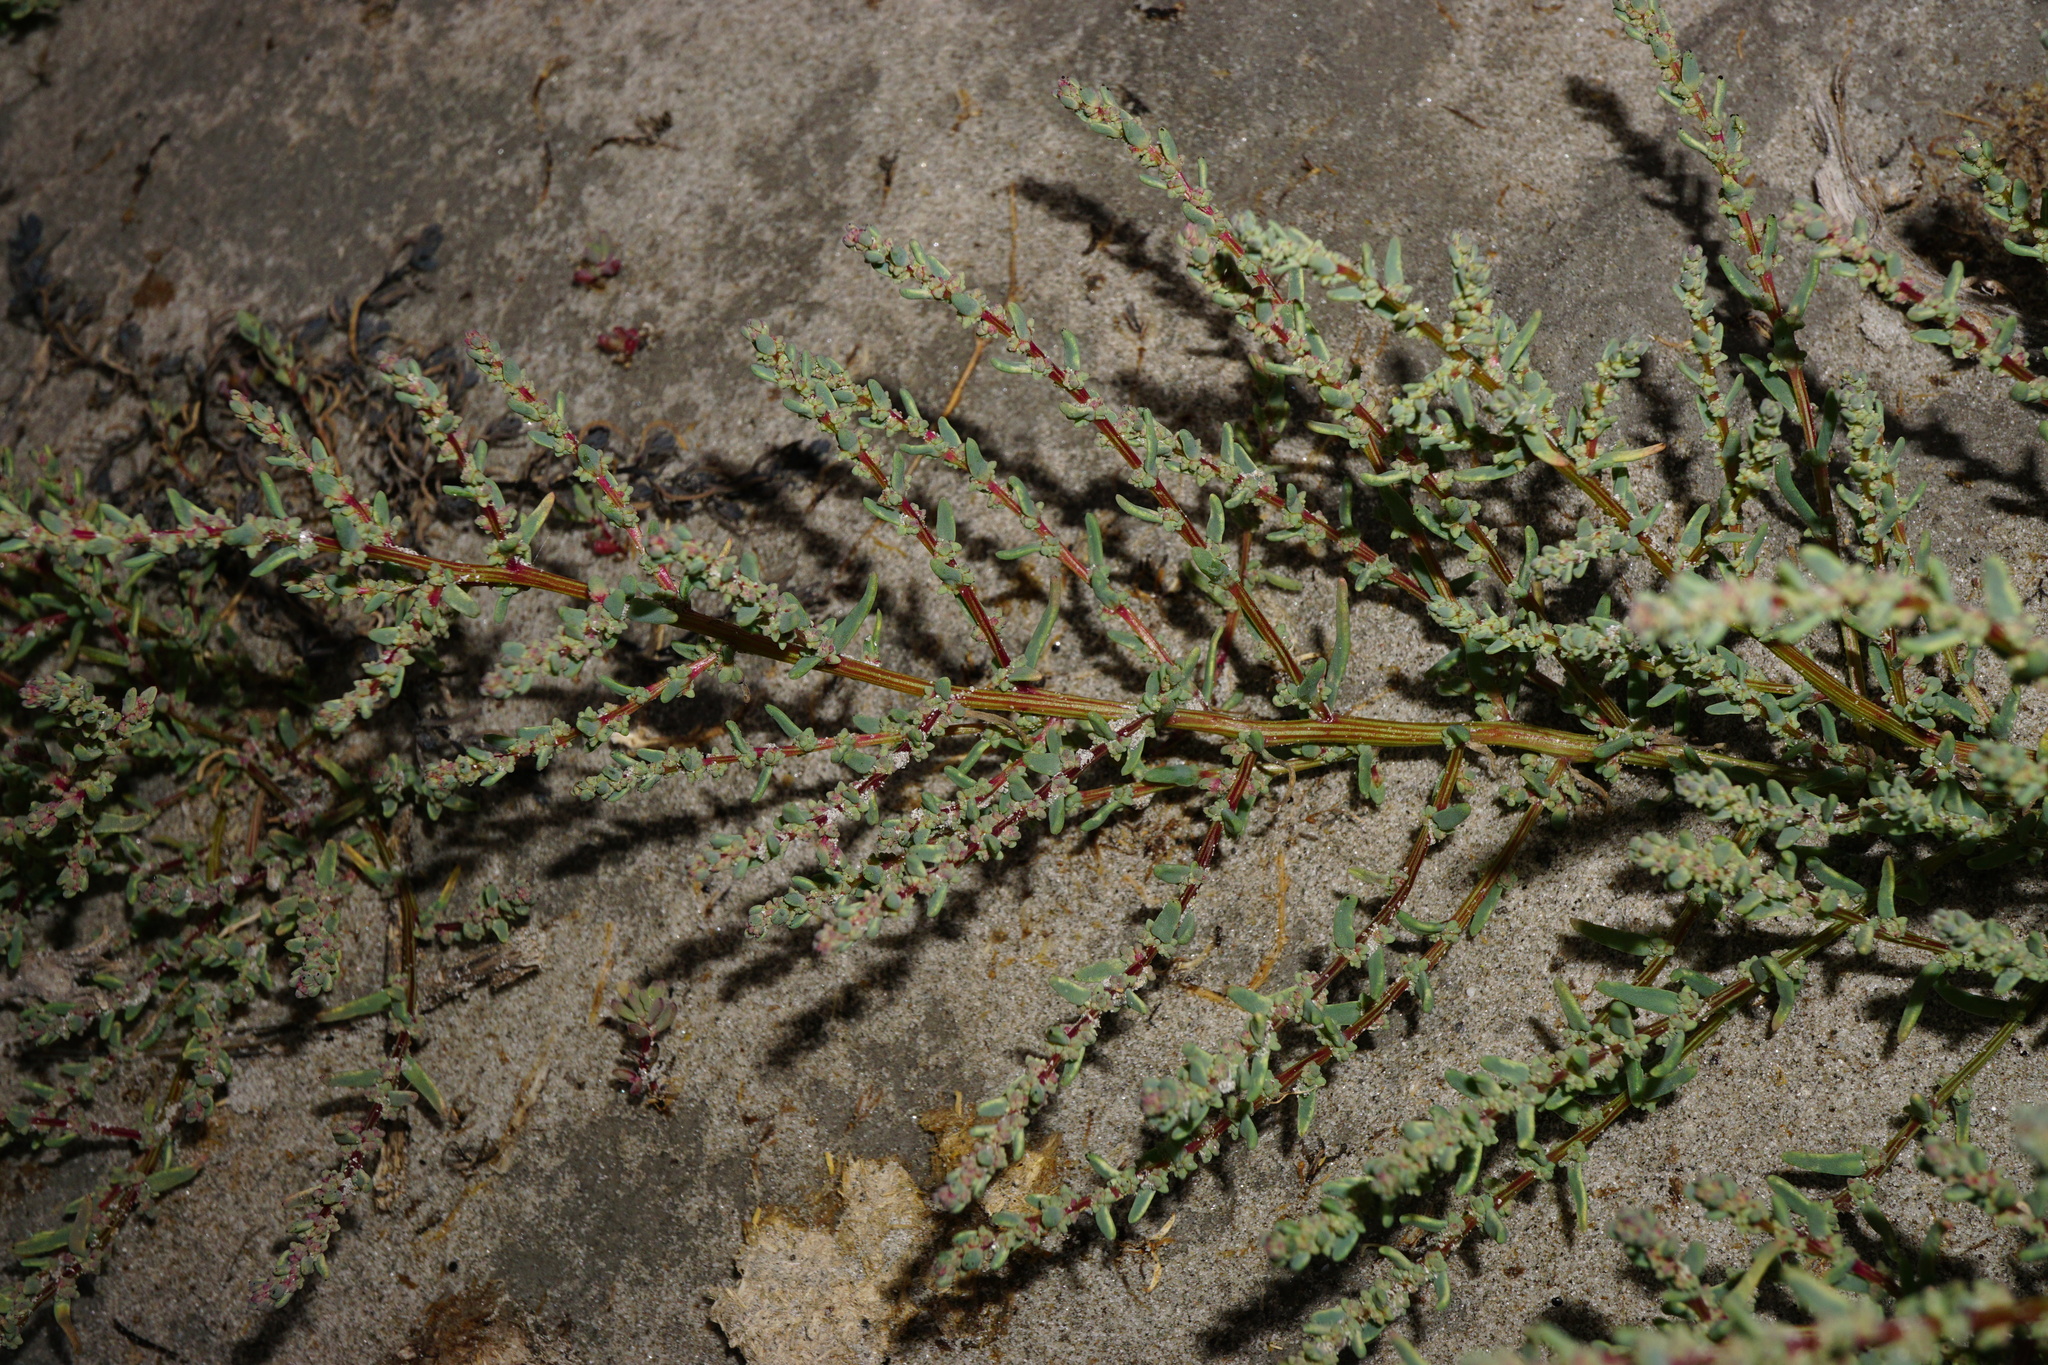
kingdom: Plantae
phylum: Tracheophyta
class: Magnoliopsida
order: Caryophyllales
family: Amaranthaceae
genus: Suaeda
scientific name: Suaeda pannonica
